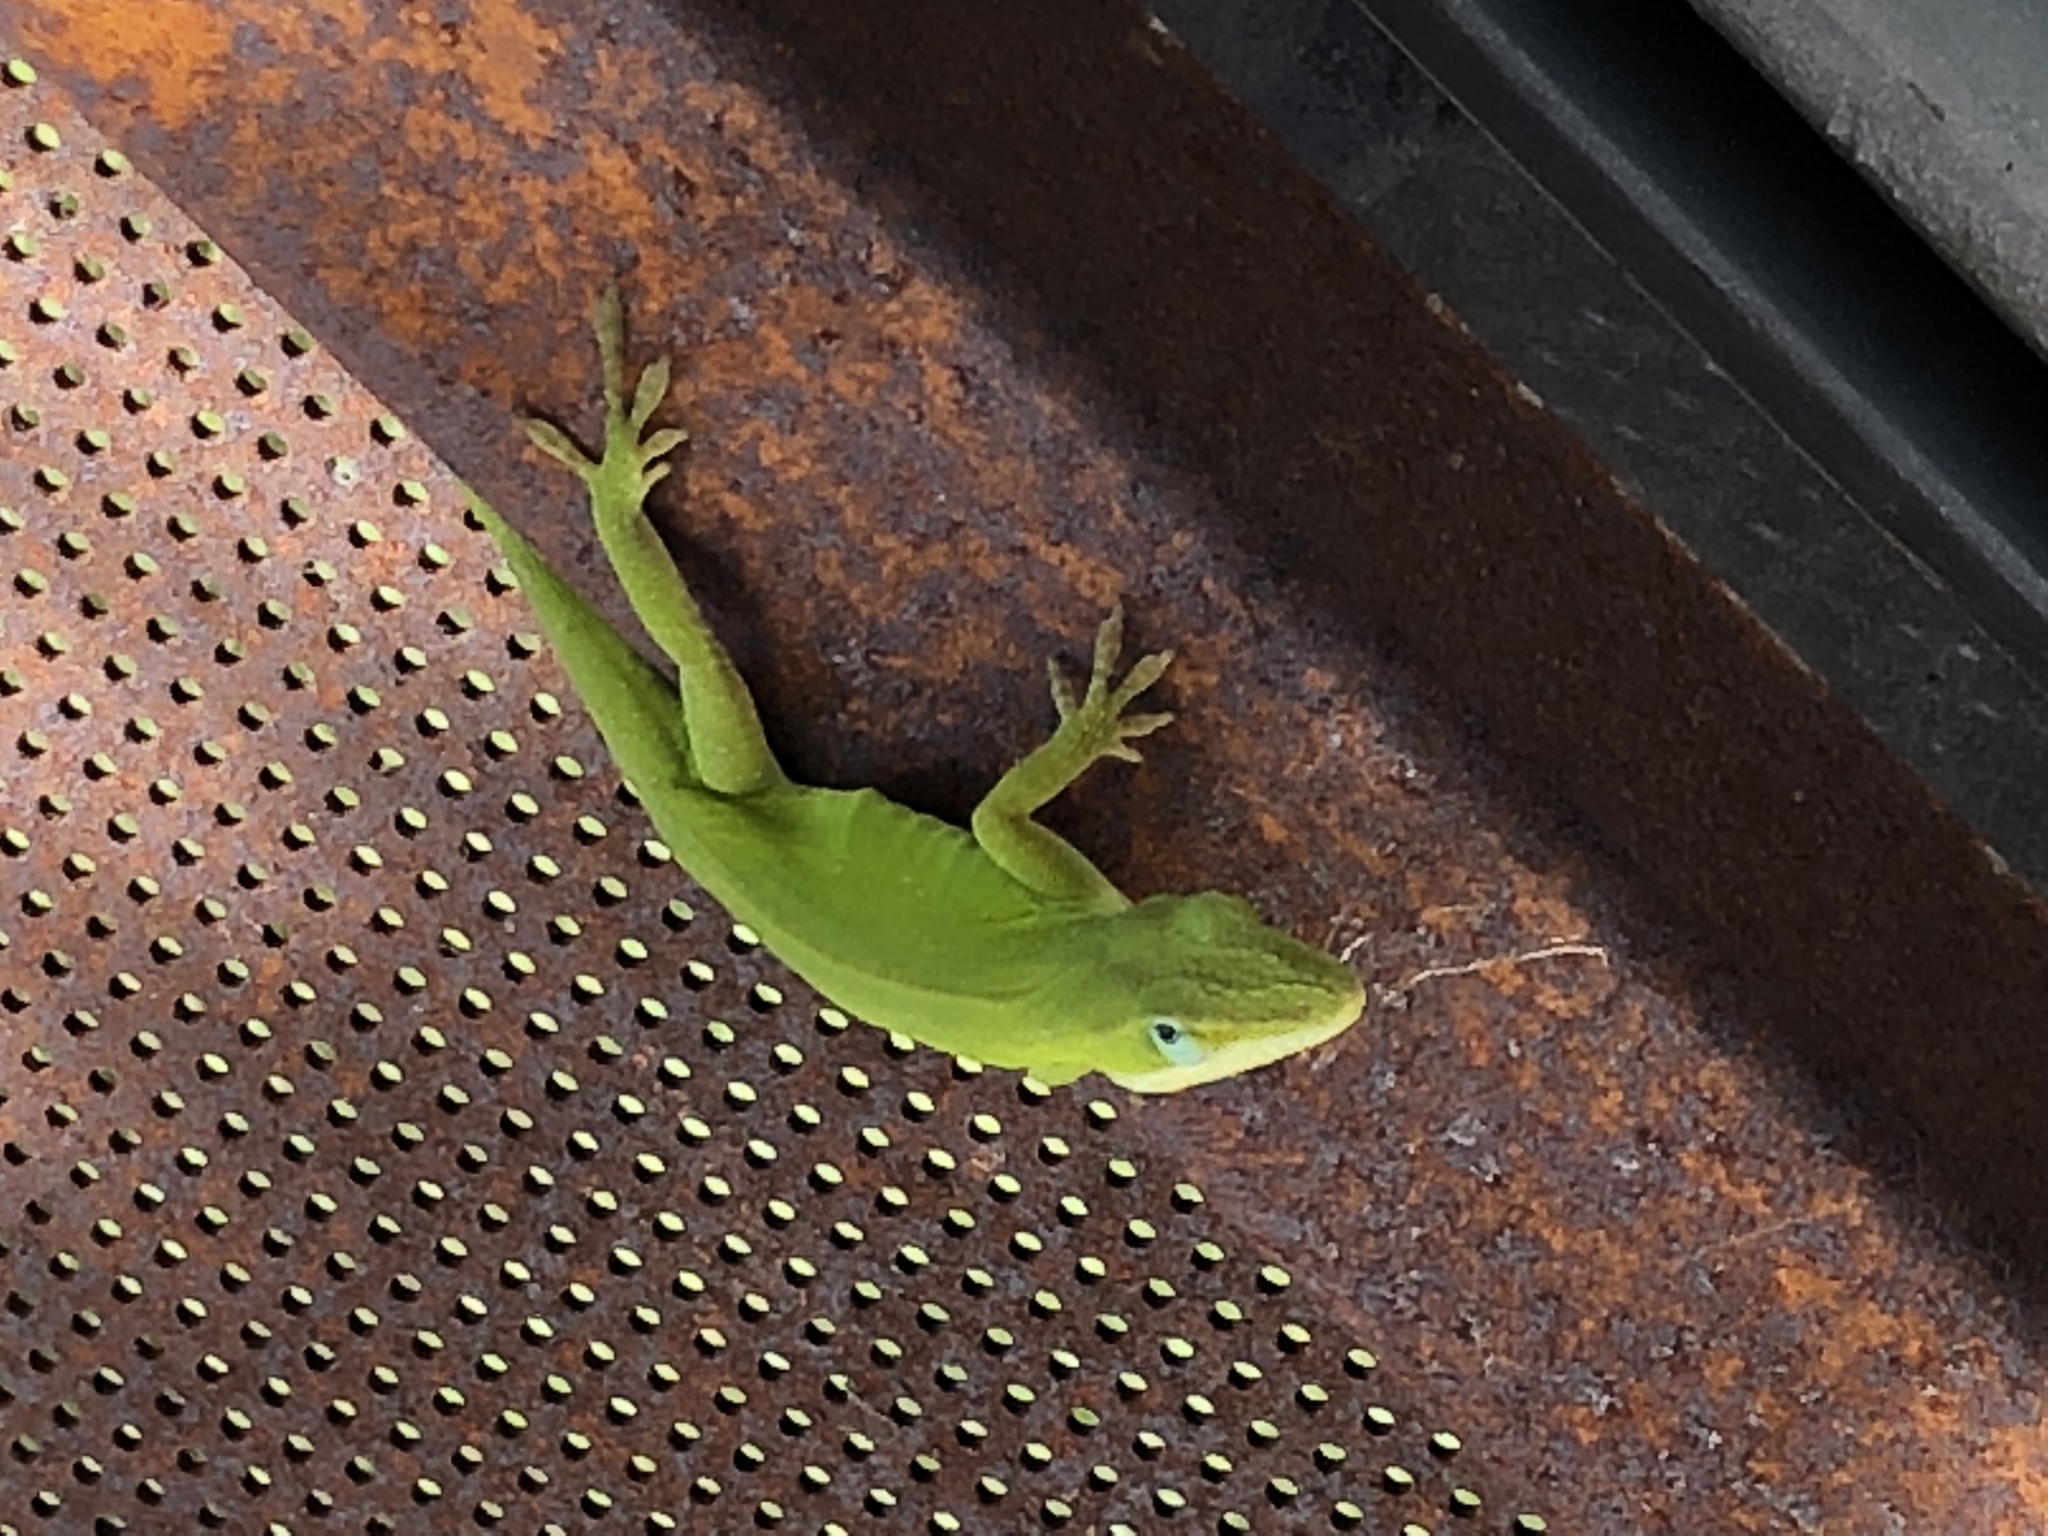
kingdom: Animalia
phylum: Chordata
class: Squamata
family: Dactyloidae
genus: Anolis
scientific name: Anolis carolinensis
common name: Green anole
